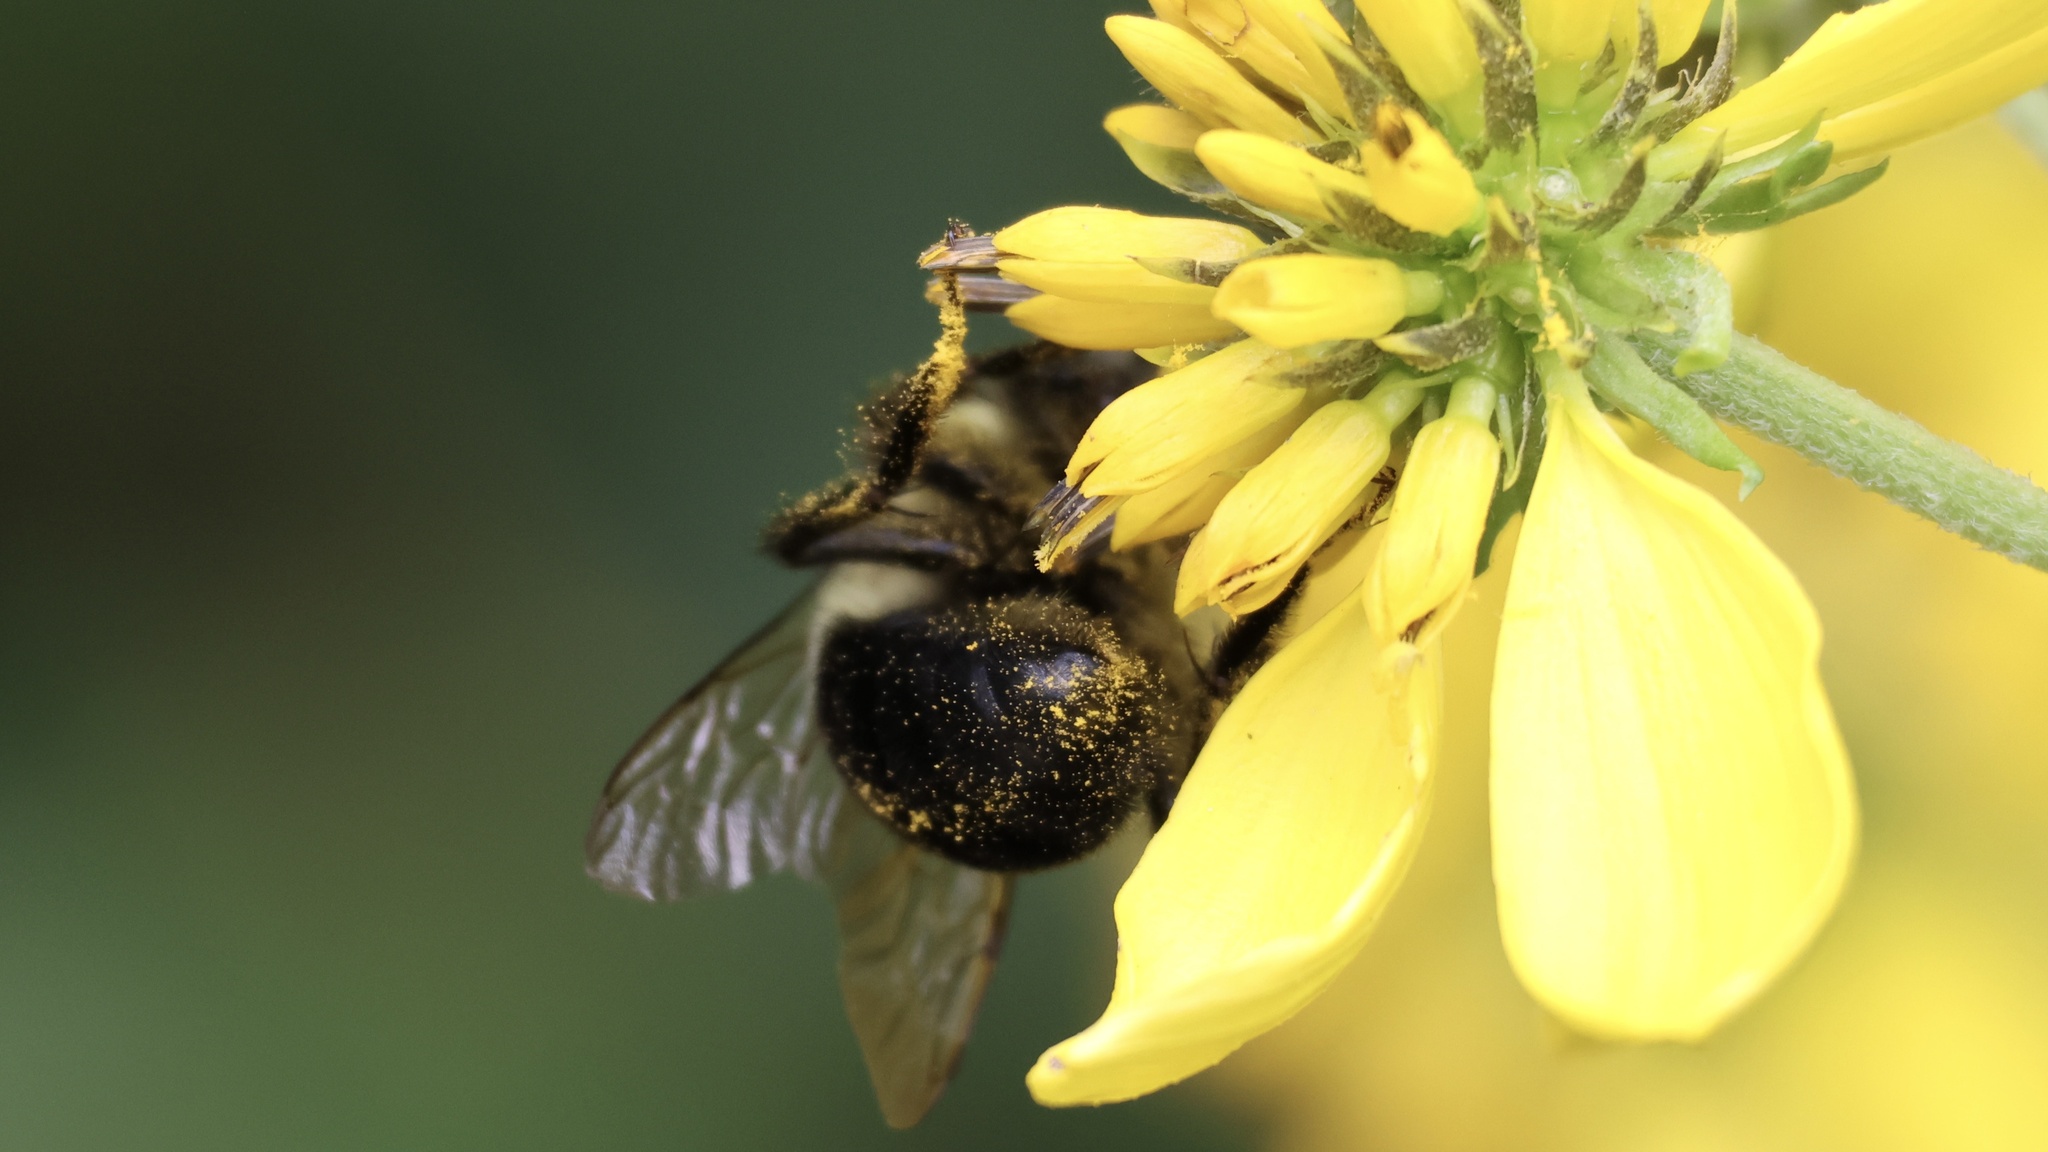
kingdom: Animalia
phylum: Arthropoda
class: Insecta
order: Hymenoptera
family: Apidae
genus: Bombus
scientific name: Bombus impatiens
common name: Common eastern bumble bee
